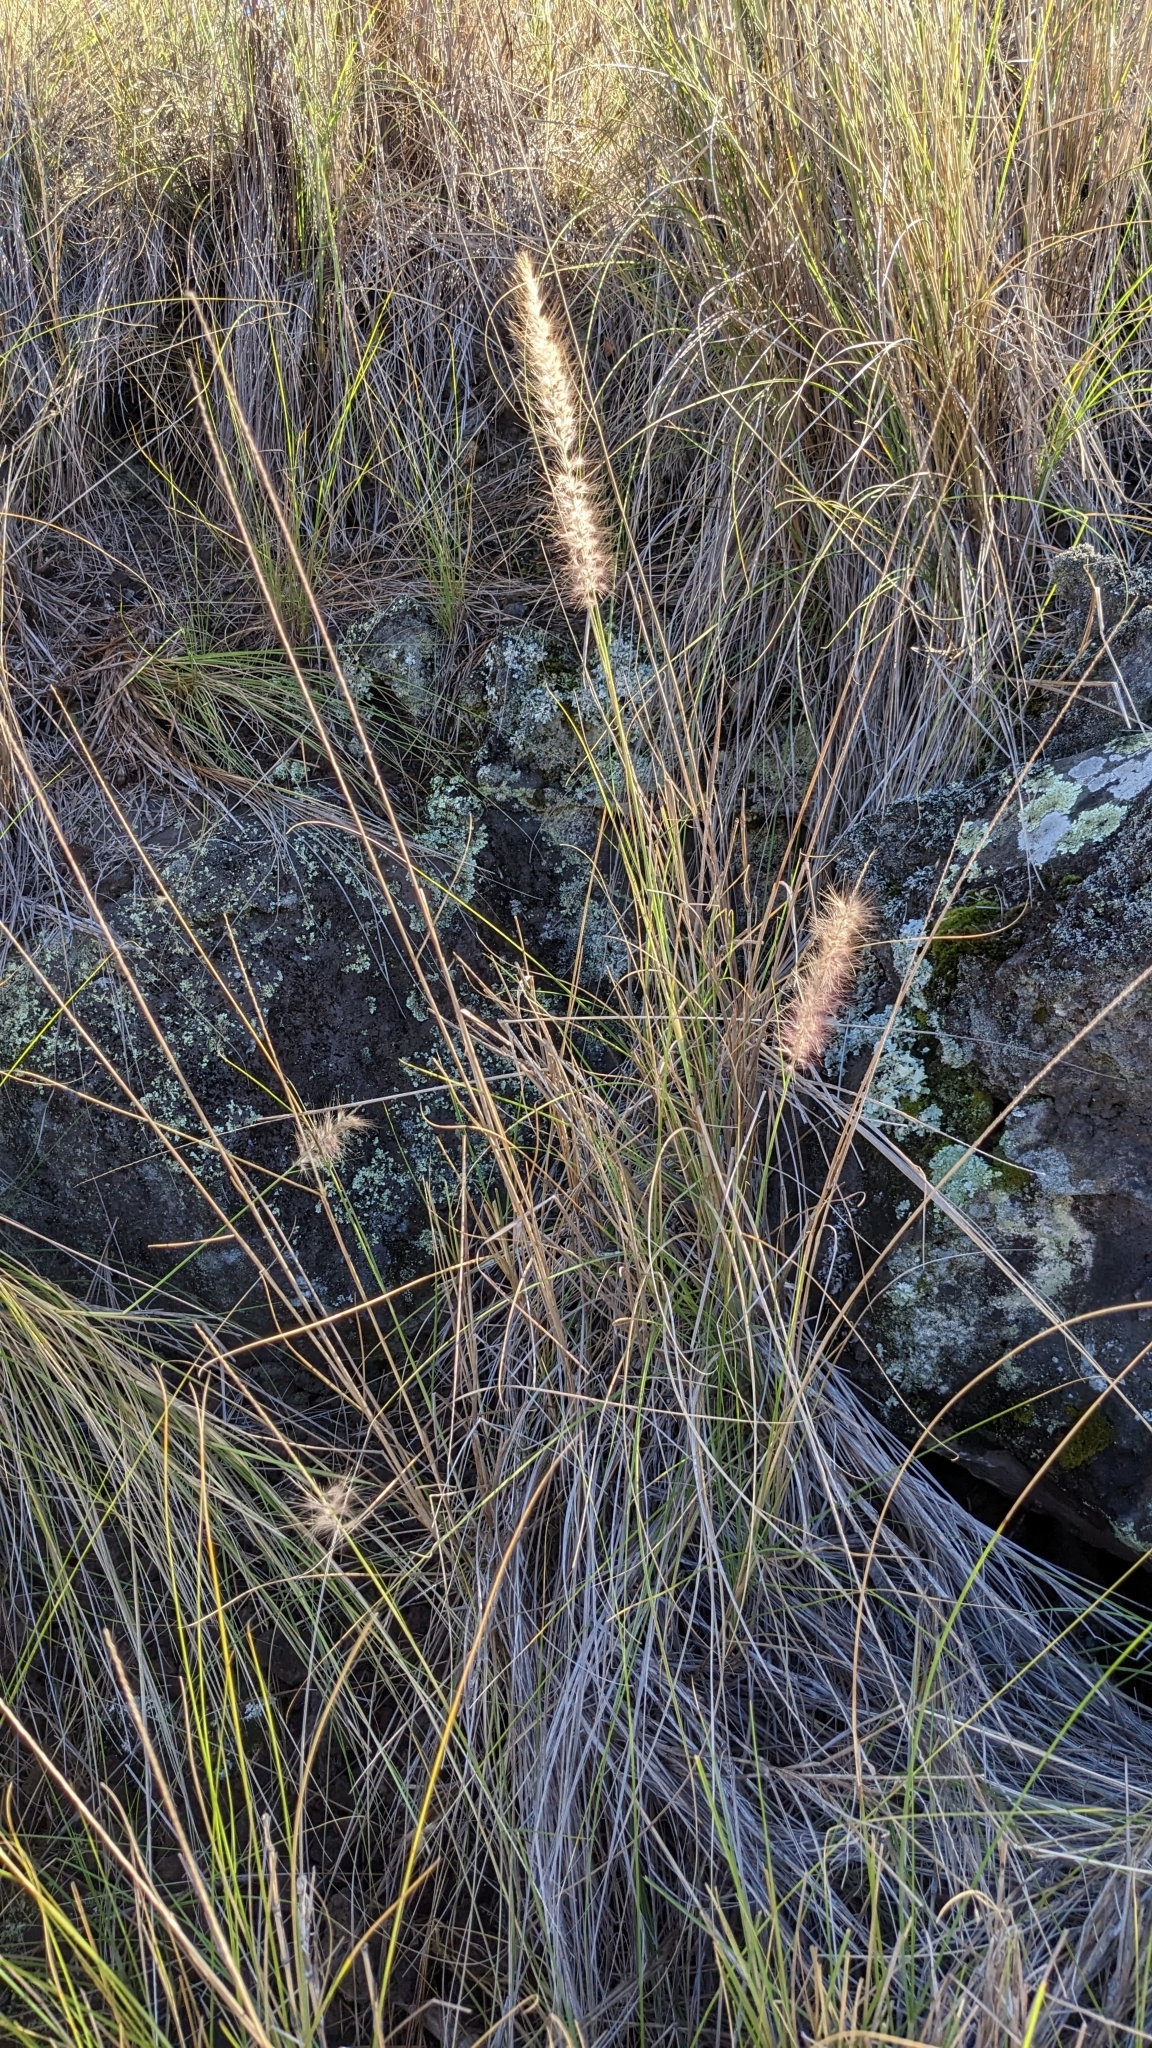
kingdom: Plantae
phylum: Tracheophyta
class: Liliopsida
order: Poales
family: Poaceae
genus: Cenchrus
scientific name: Cenchrus ciliaris
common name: Buffelgrass
